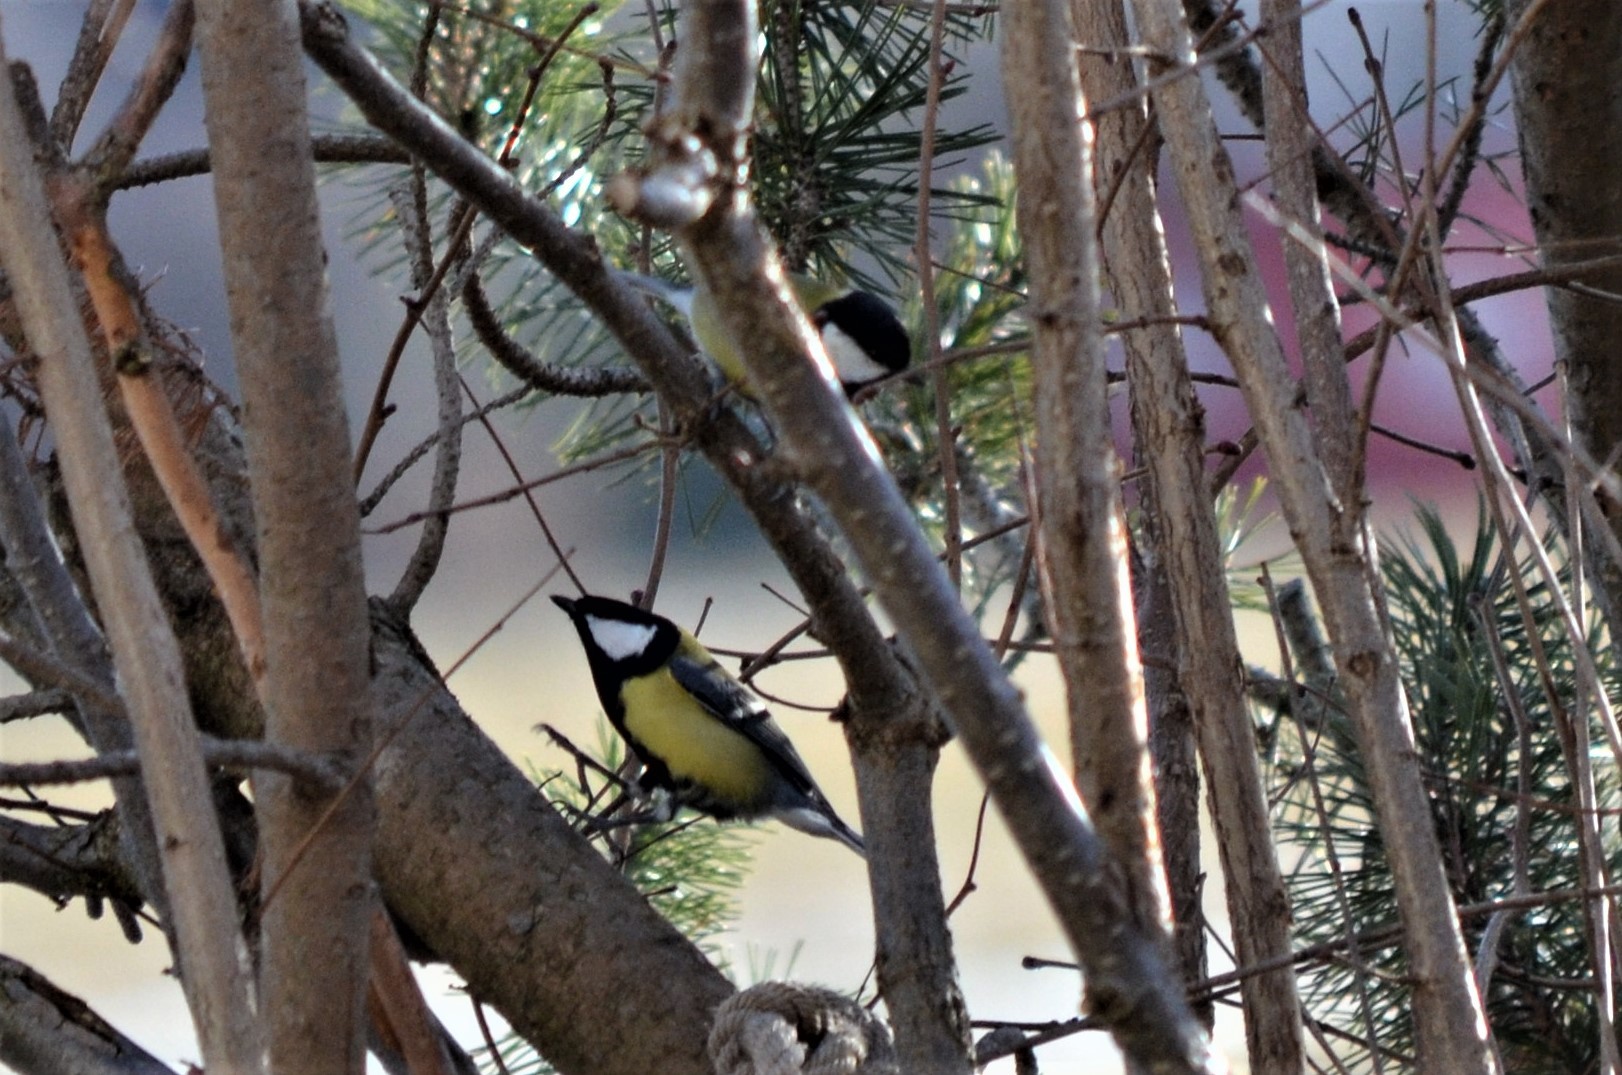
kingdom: Animalia
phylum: Chordata
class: Aves
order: Passeriformes
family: Paridae
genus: Parus
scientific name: Parus major
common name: Great tit
